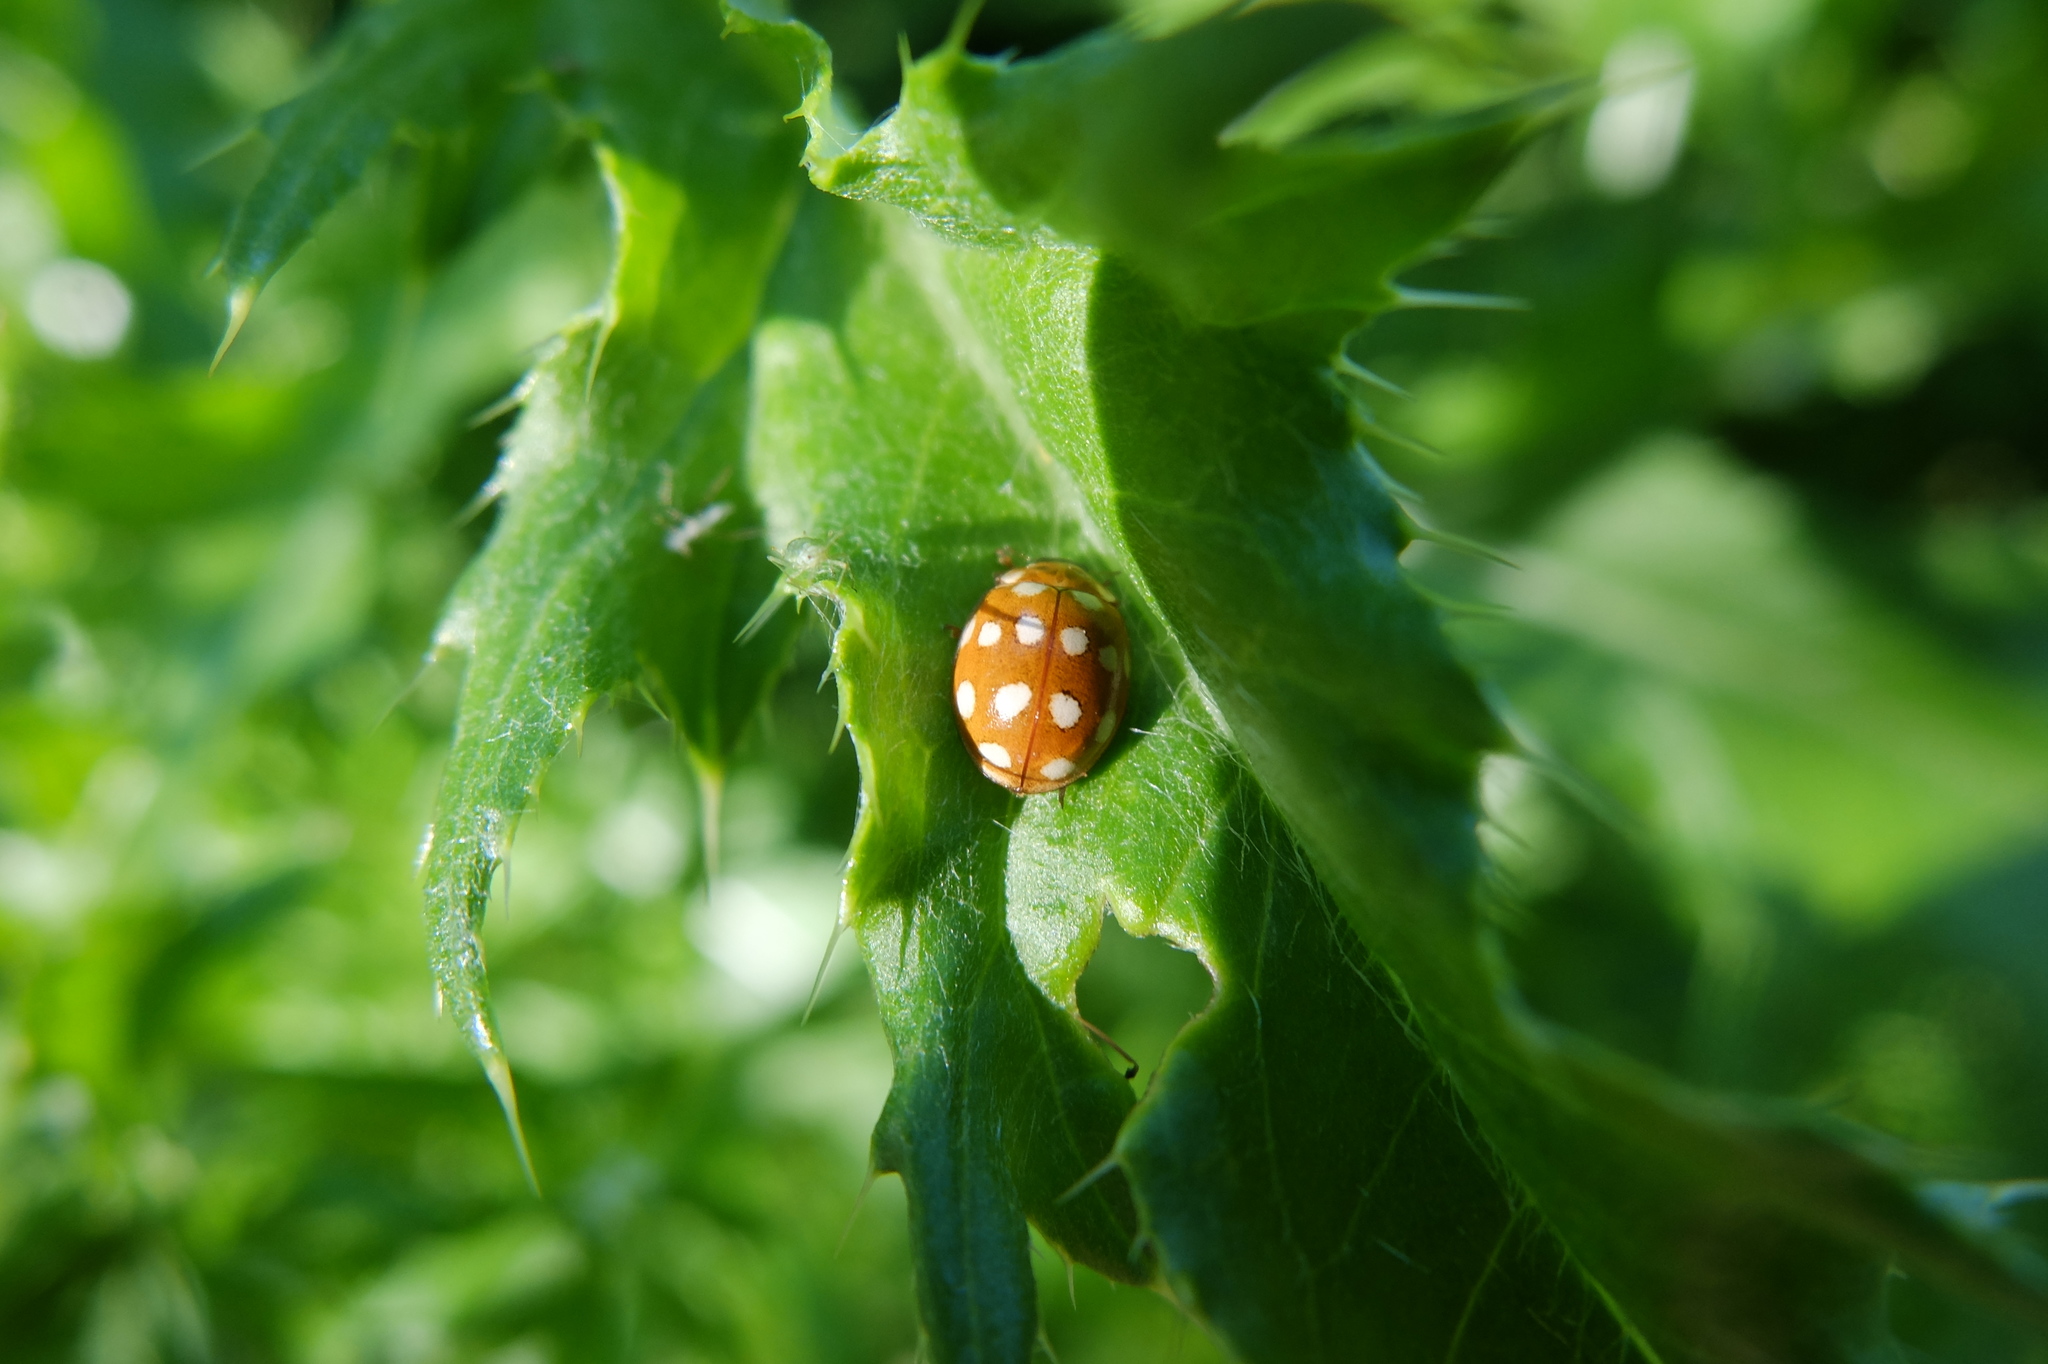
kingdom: Animalia
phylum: Arthropoda
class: Insecta
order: Coleoptera
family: Coccinellidae
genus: Calvia
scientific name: Calvia quatuordecimguttata
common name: Cream-spot ladybird
